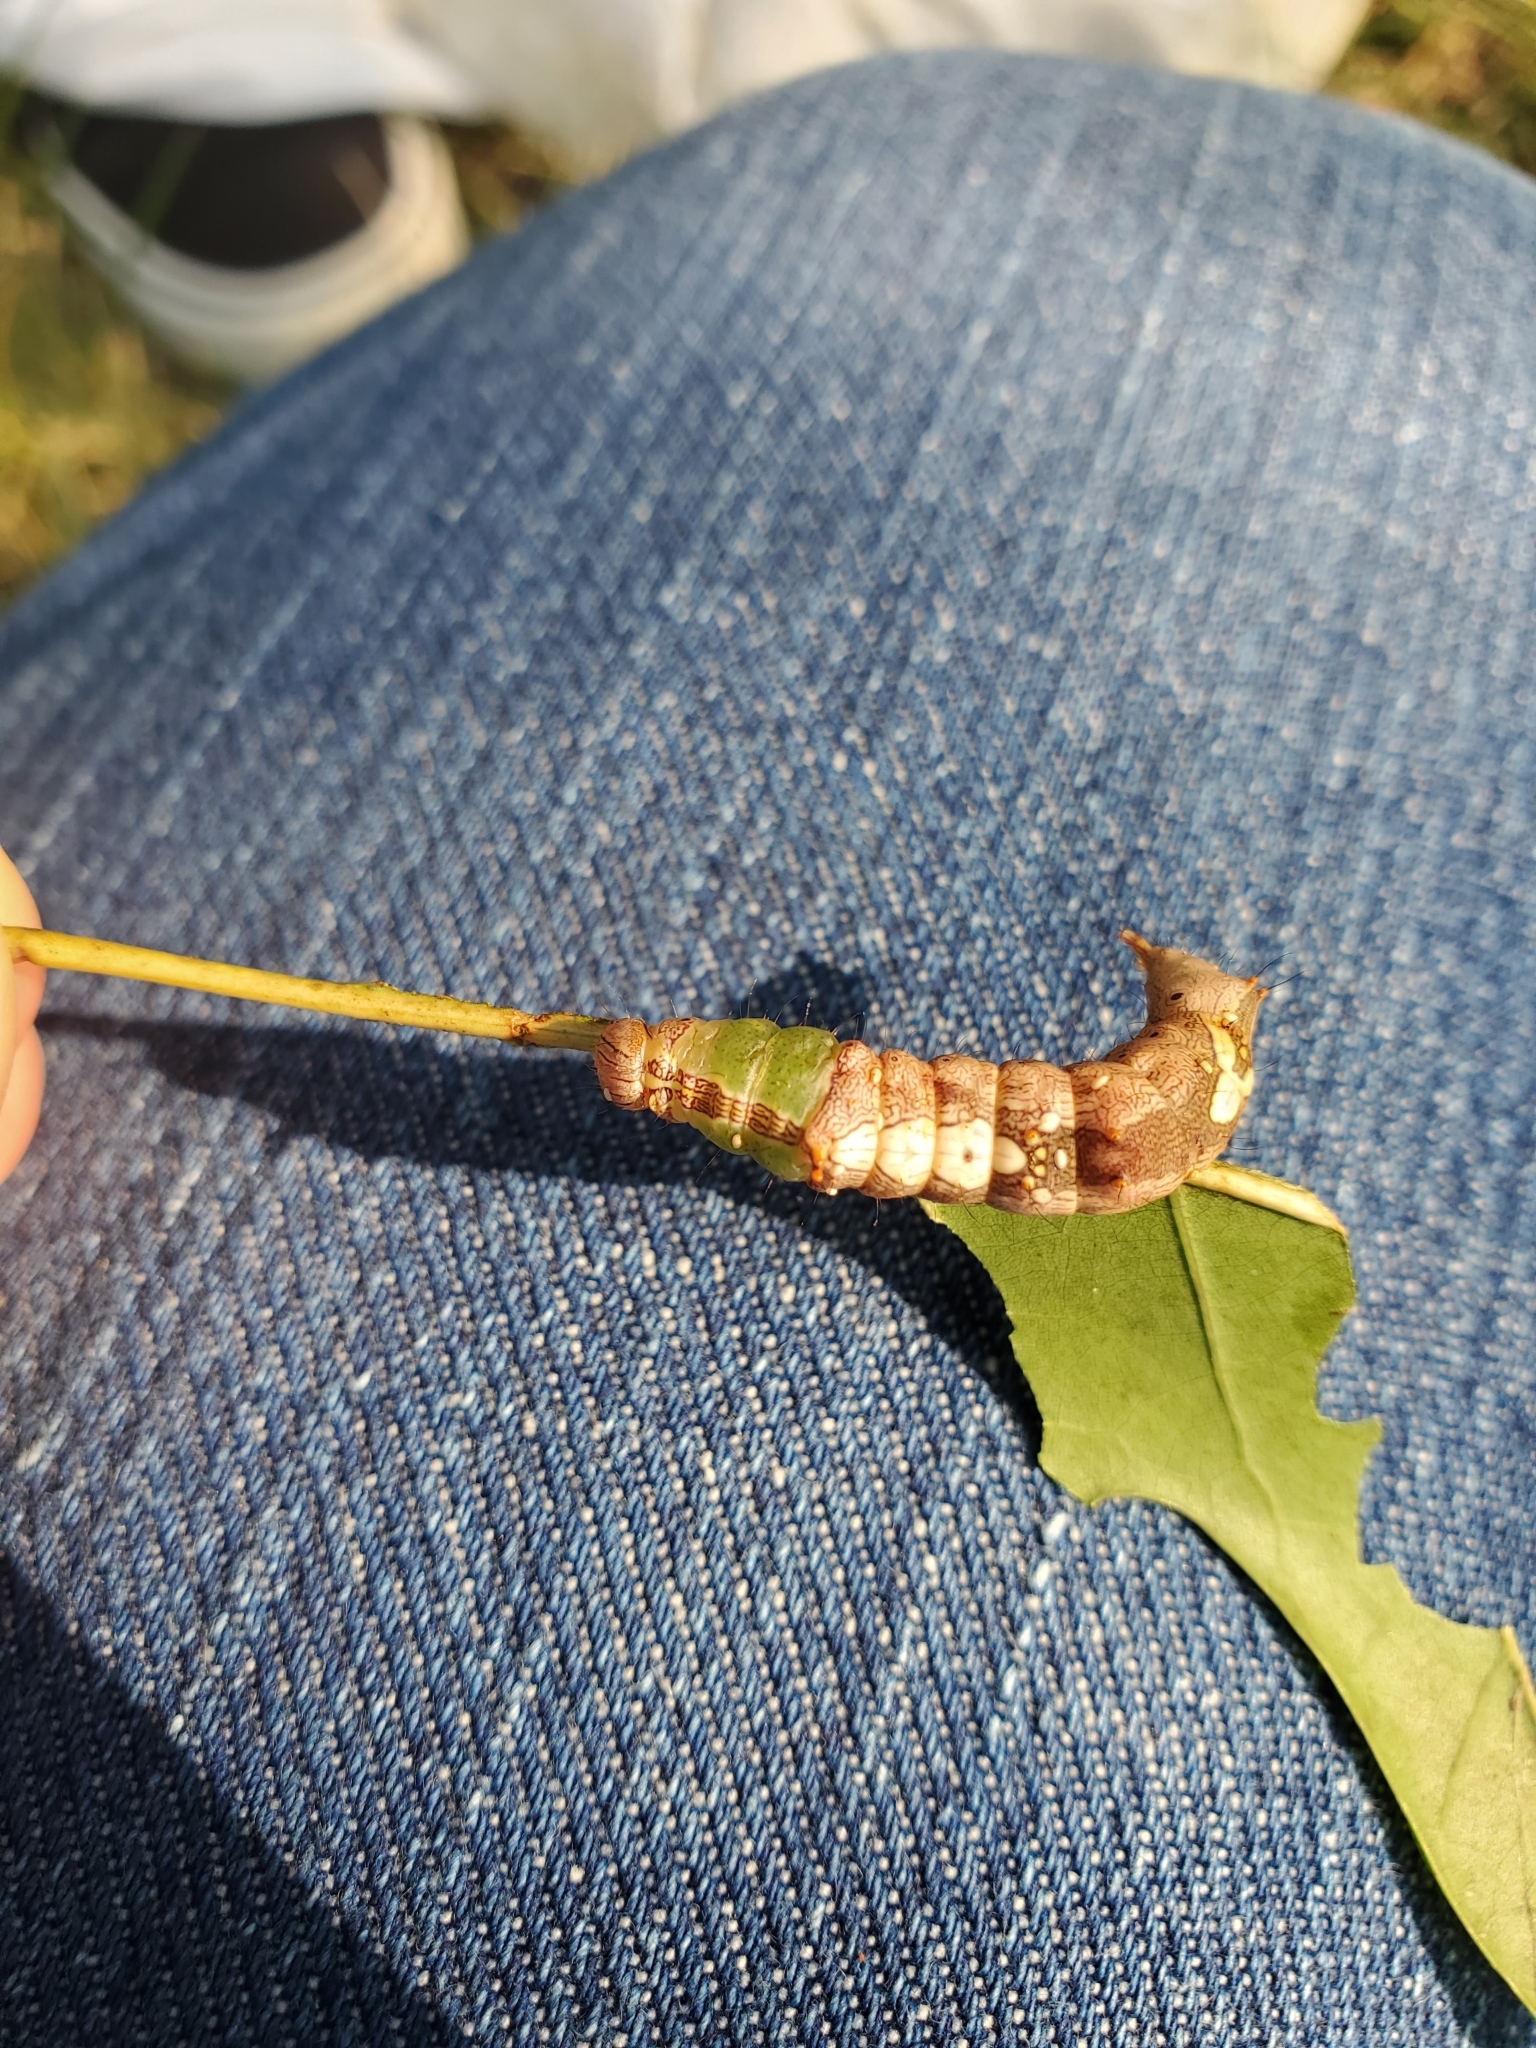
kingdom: Animalia
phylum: Arthropoda
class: Insecta
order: Lepidoptera
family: Notodontidae
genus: Schizura
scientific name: Schizura ipomaeae
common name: Morning-glory prominent
